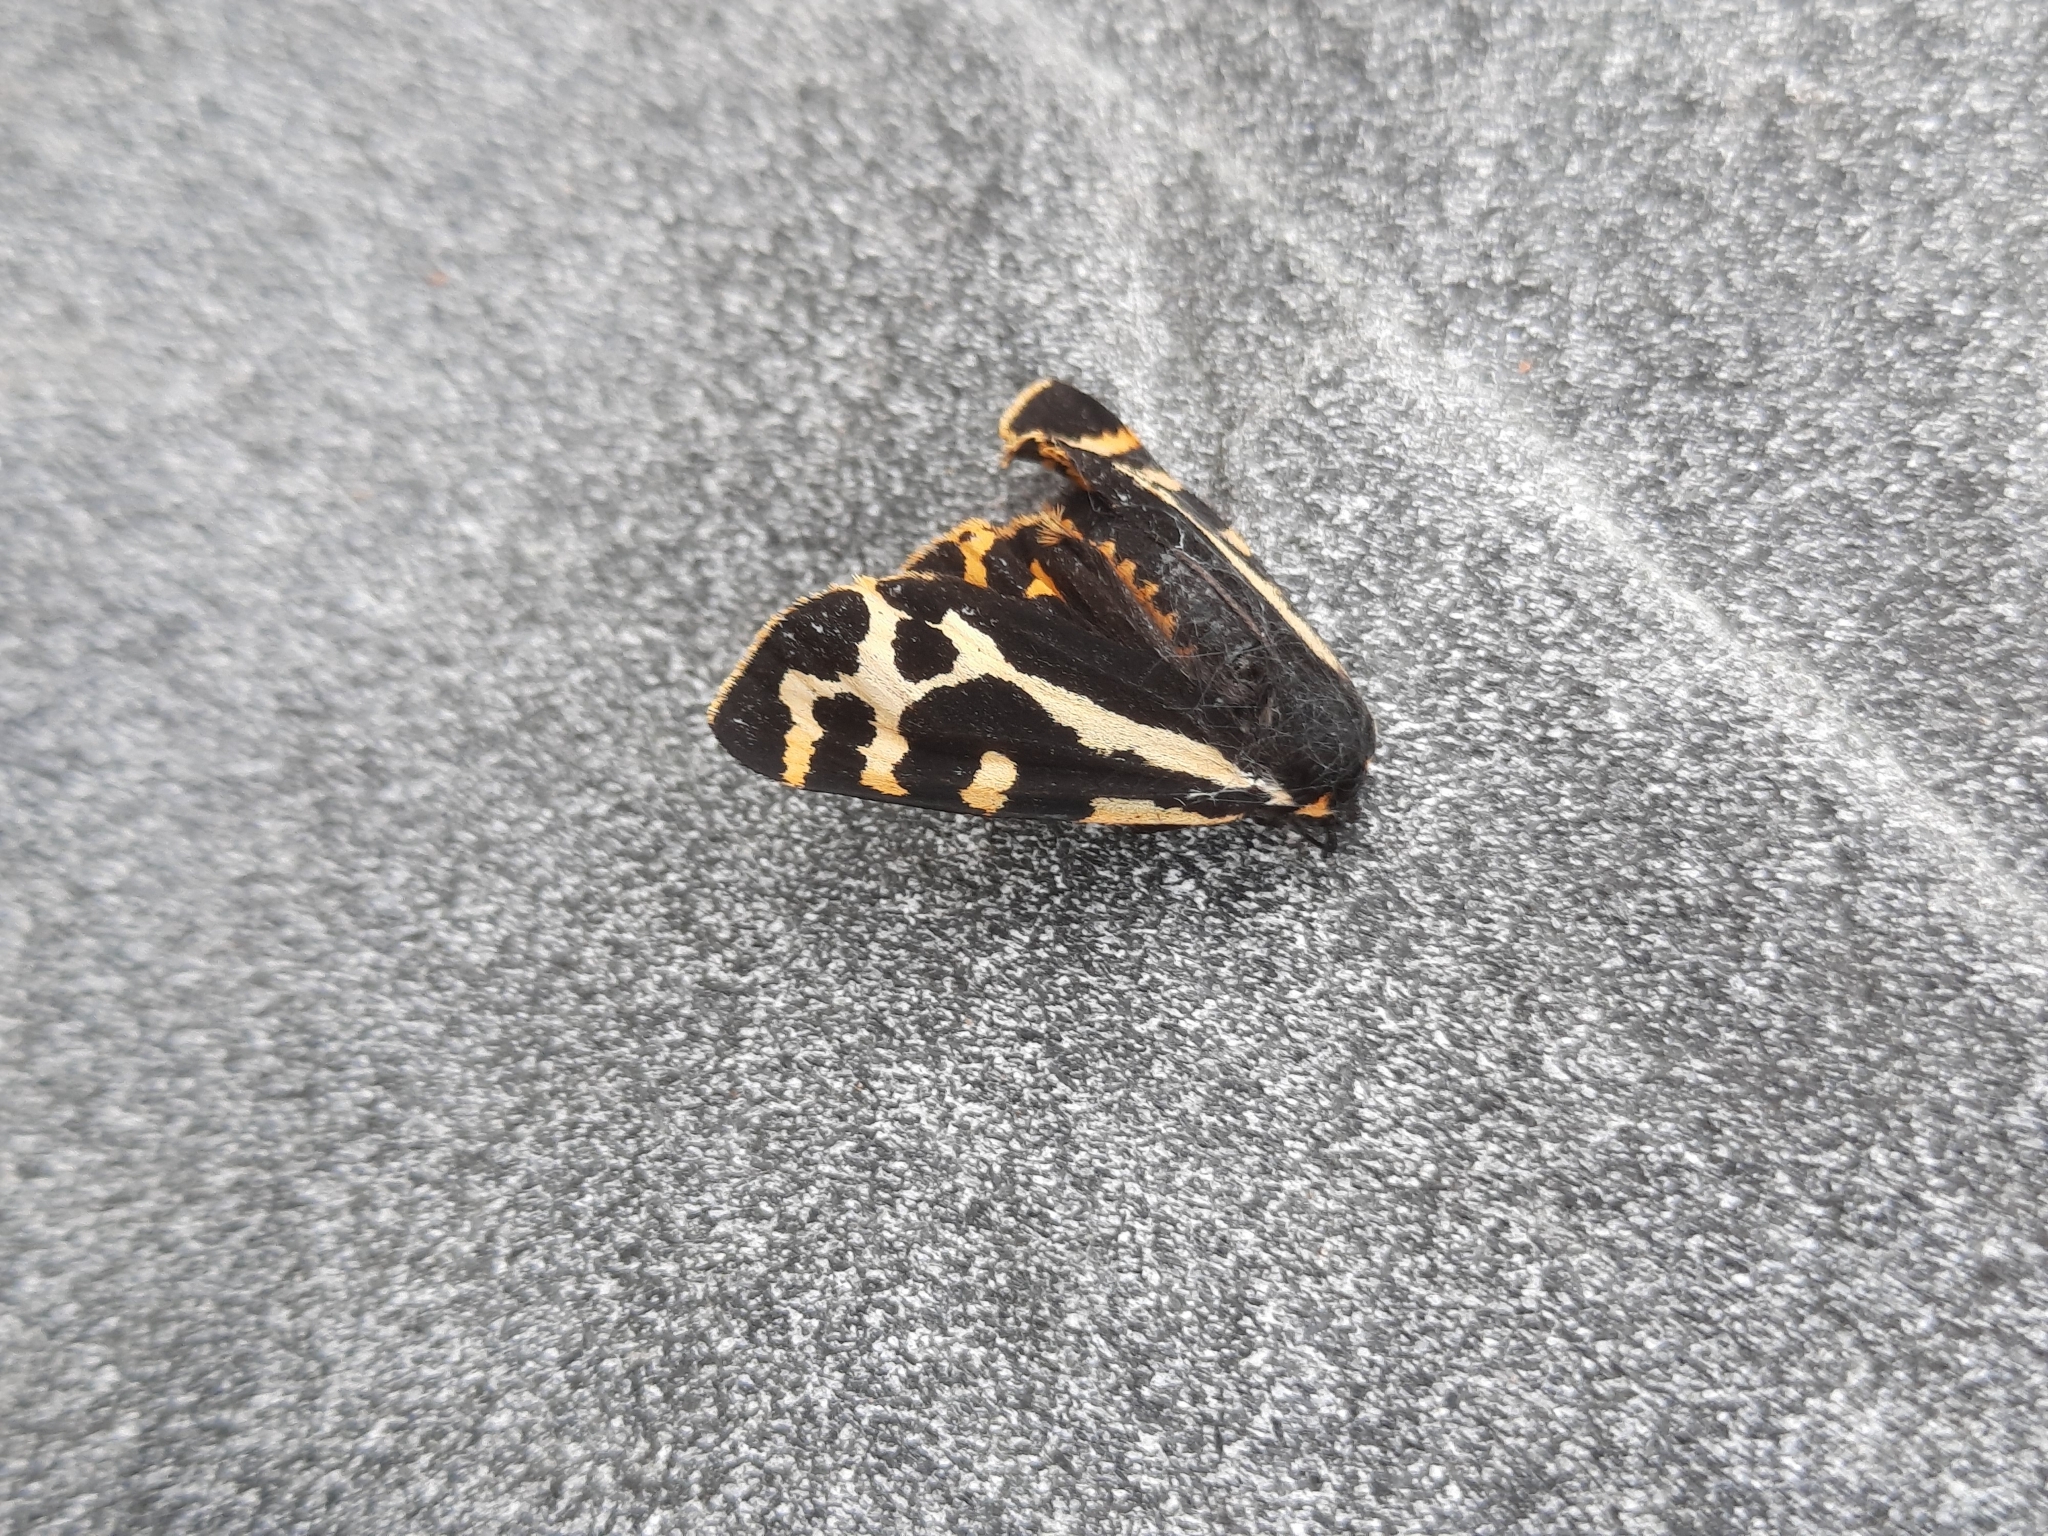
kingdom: Animalia
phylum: Arthropoda
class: Insecta
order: Lepidoptera
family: Erebidae
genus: Parasemia
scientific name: Parasemia plantaginis
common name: Wood tiger
